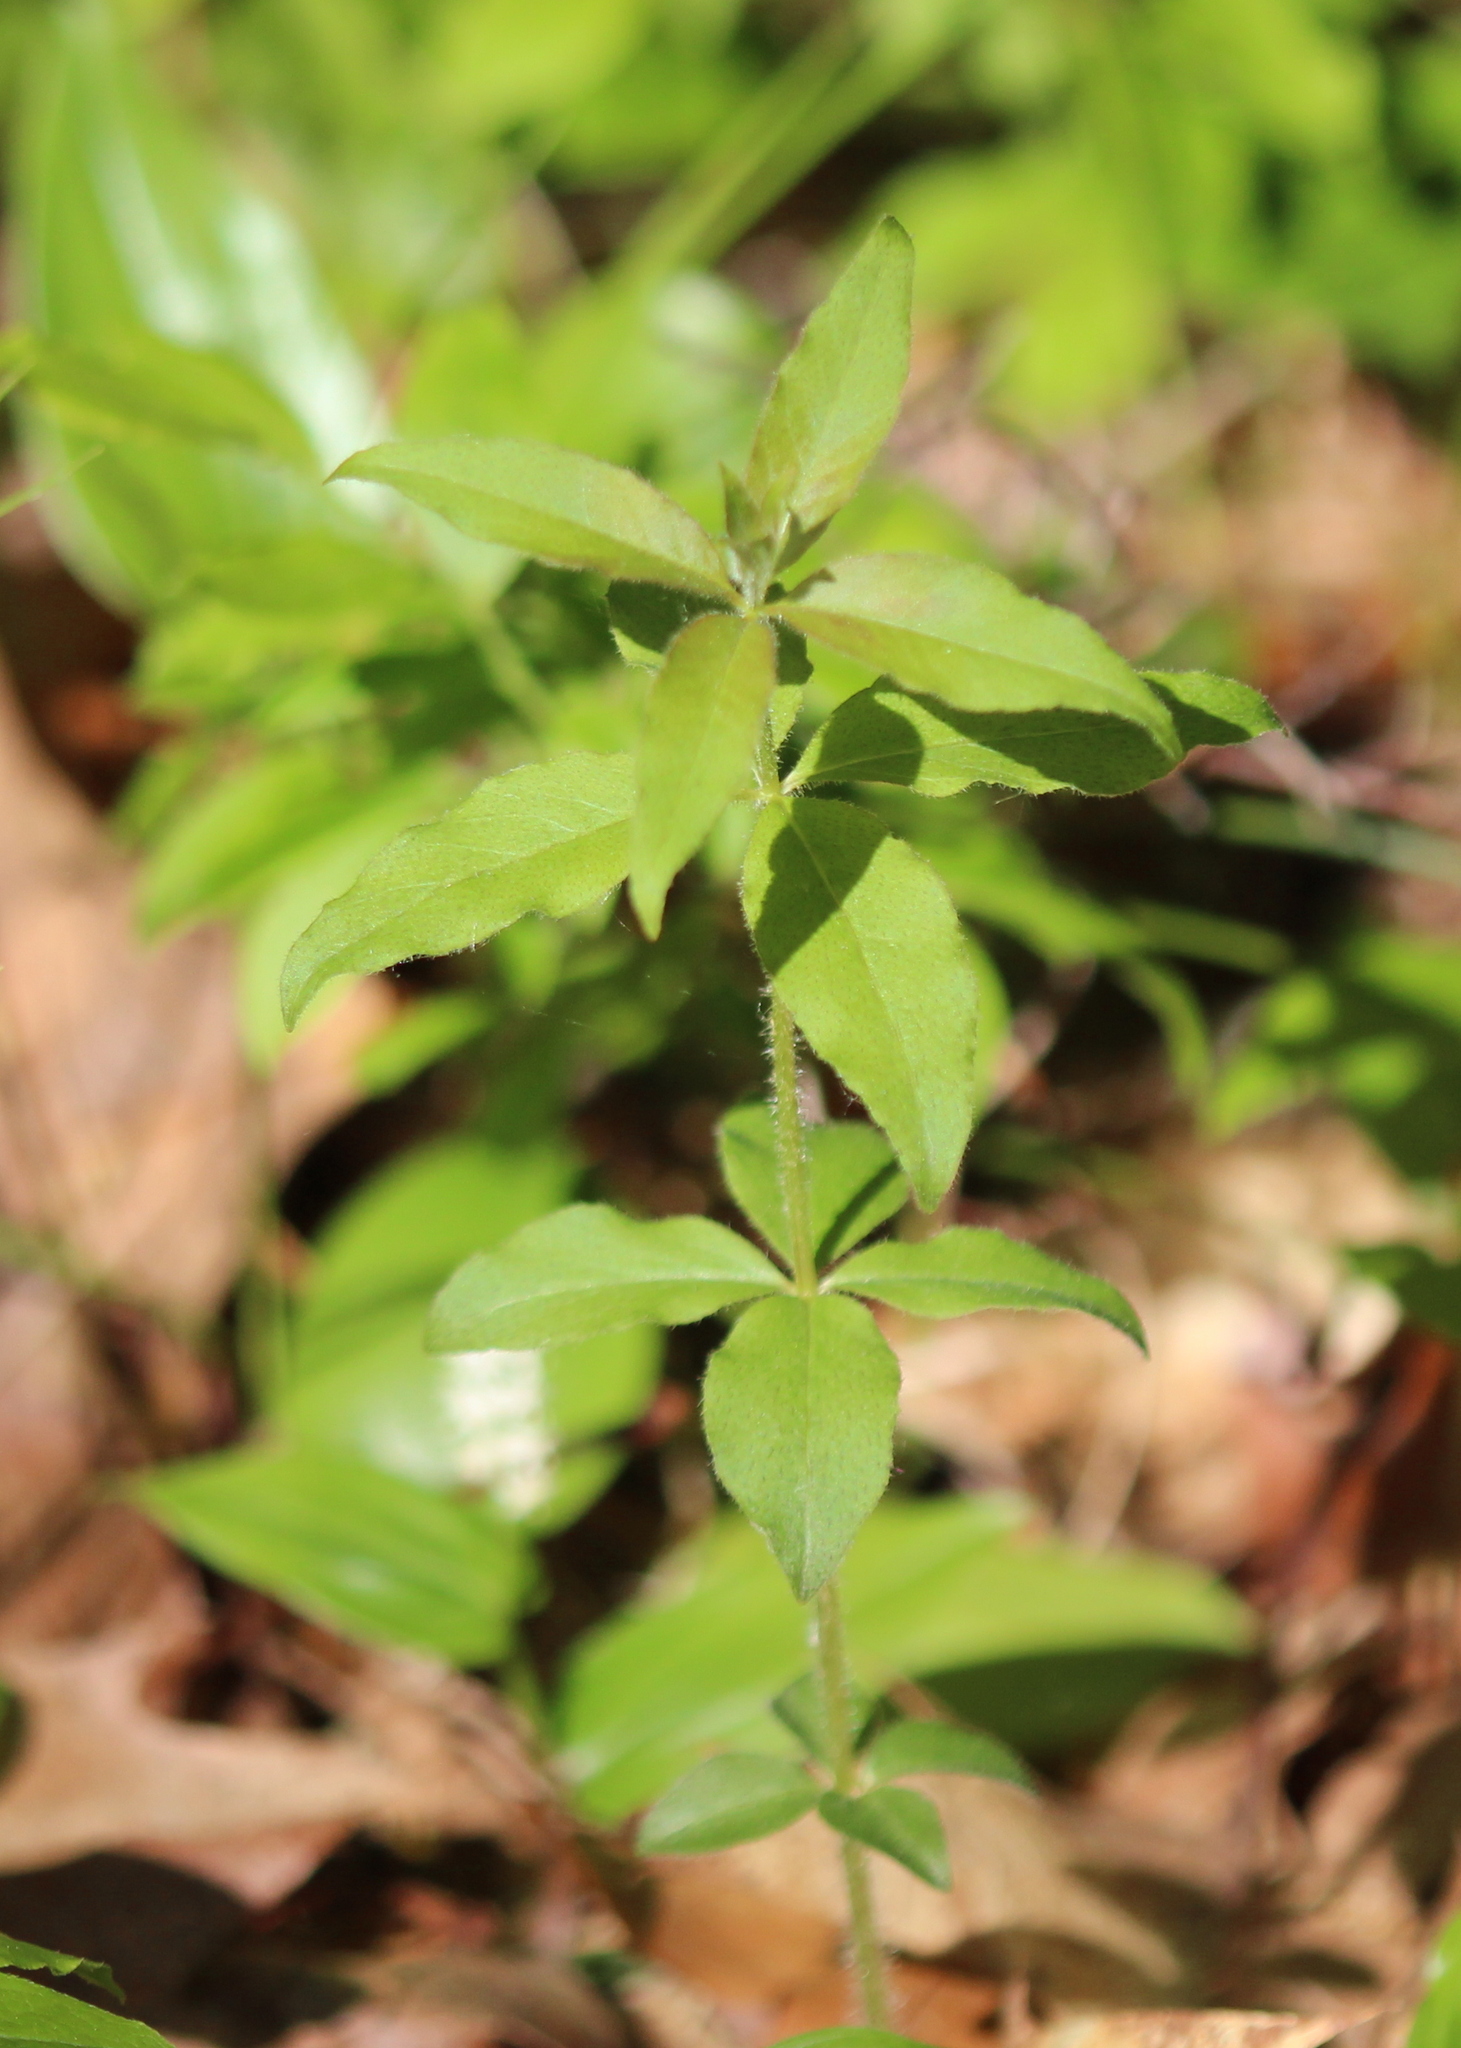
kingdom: Plantae
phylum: Tracheophyta
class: Magnoliopsida
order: Ericales
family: Primulaceae
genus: Lysimachia
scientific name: Lysimachia quadrifolia
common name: Whorled loosestrife
